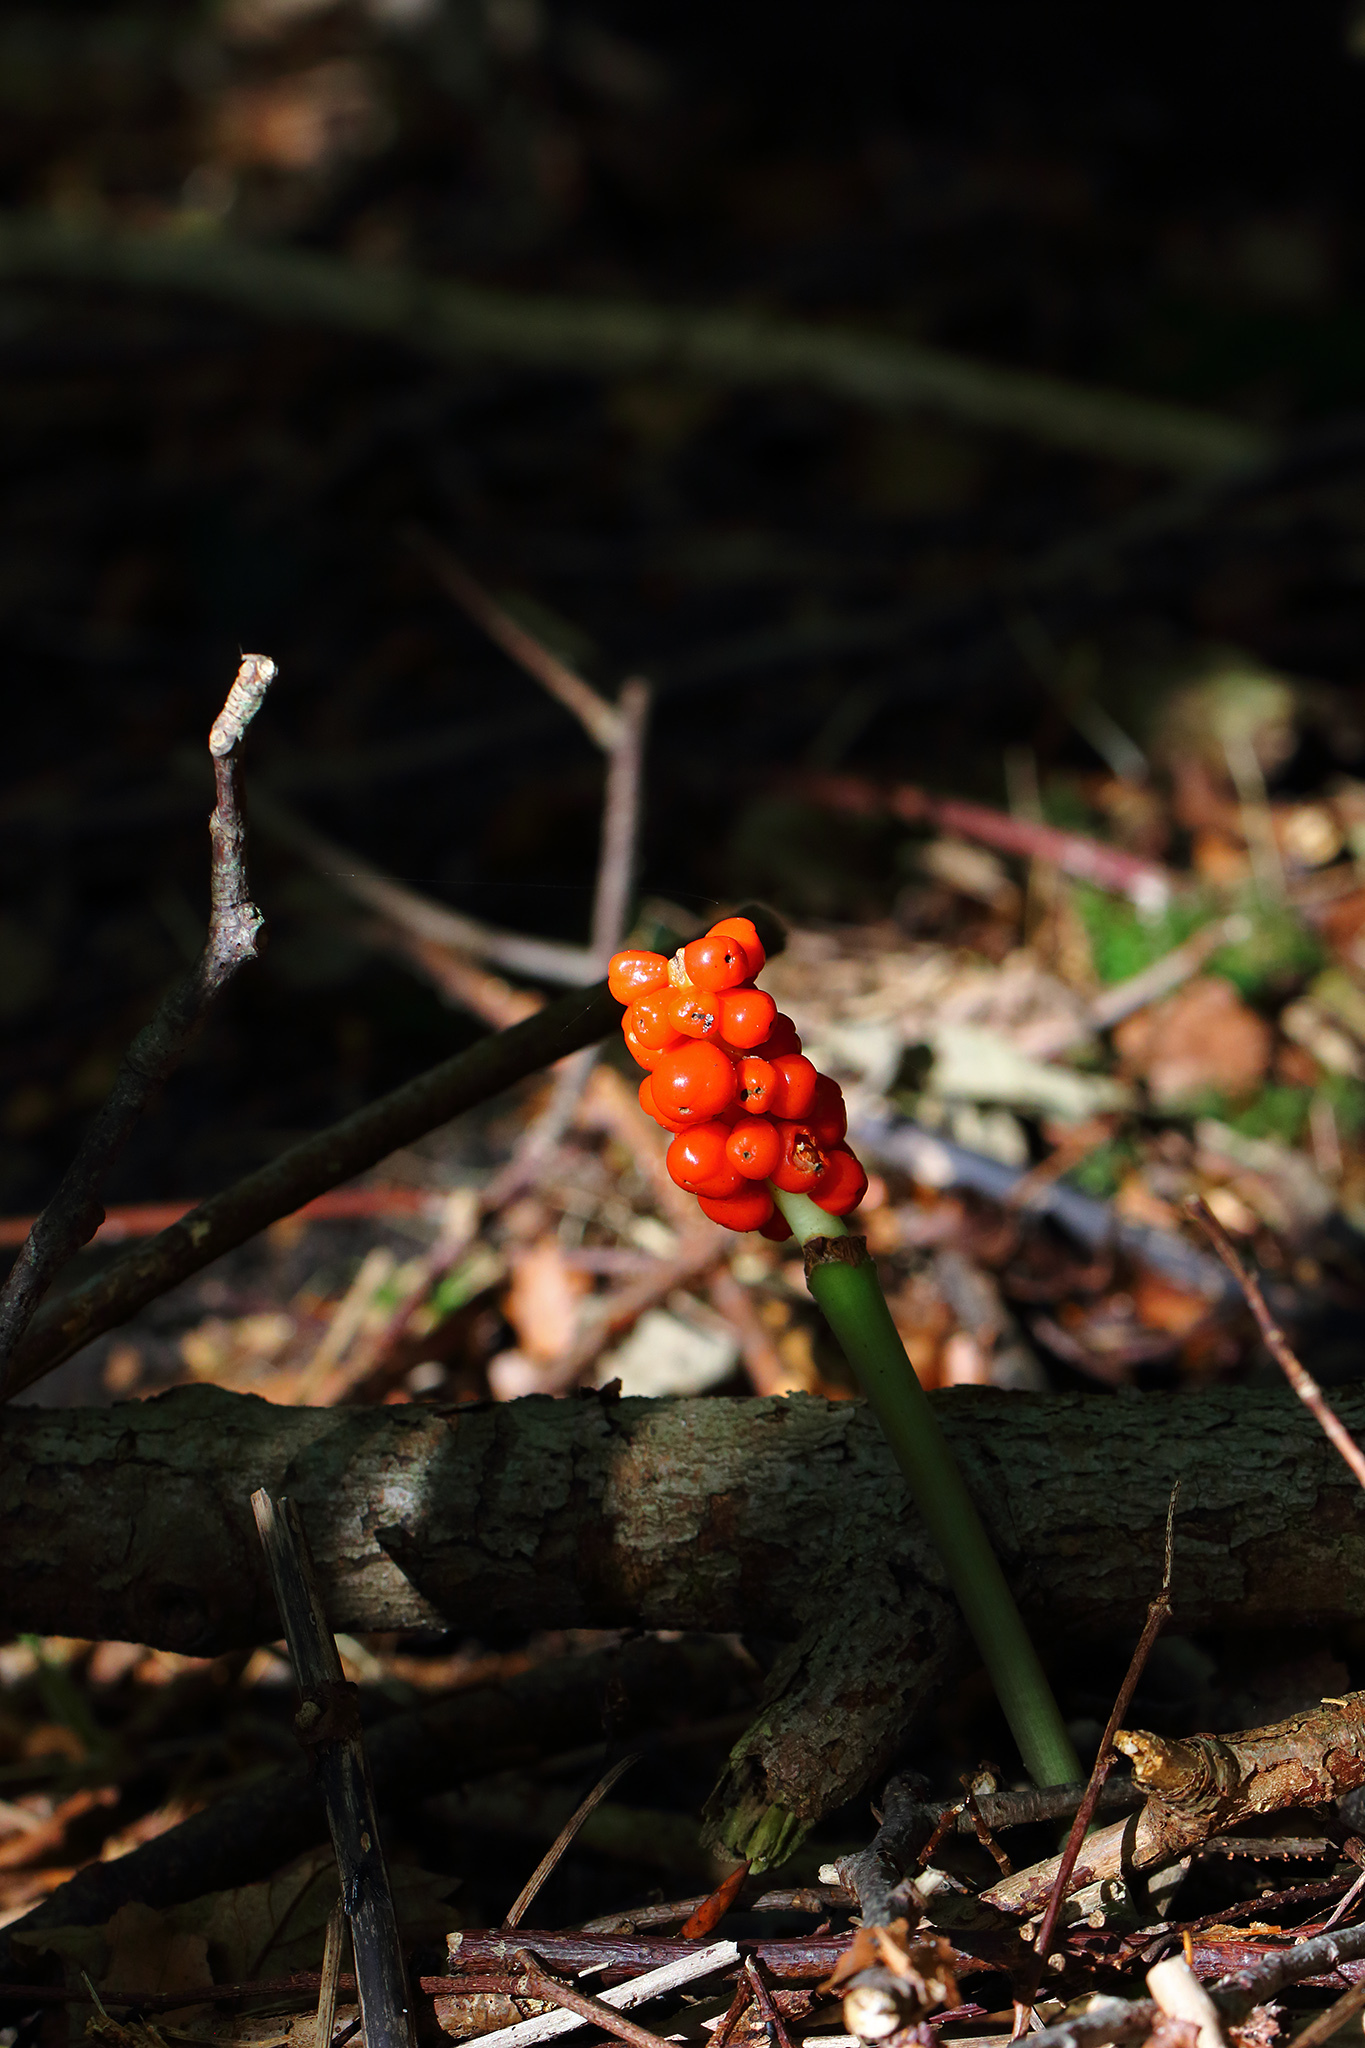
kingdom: Plantae
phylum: Tracheophyta
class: Liliopsida
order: Alismatales
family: Araceae
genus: Arum
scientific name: Arum maculatum
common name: Lords-and-ladies
